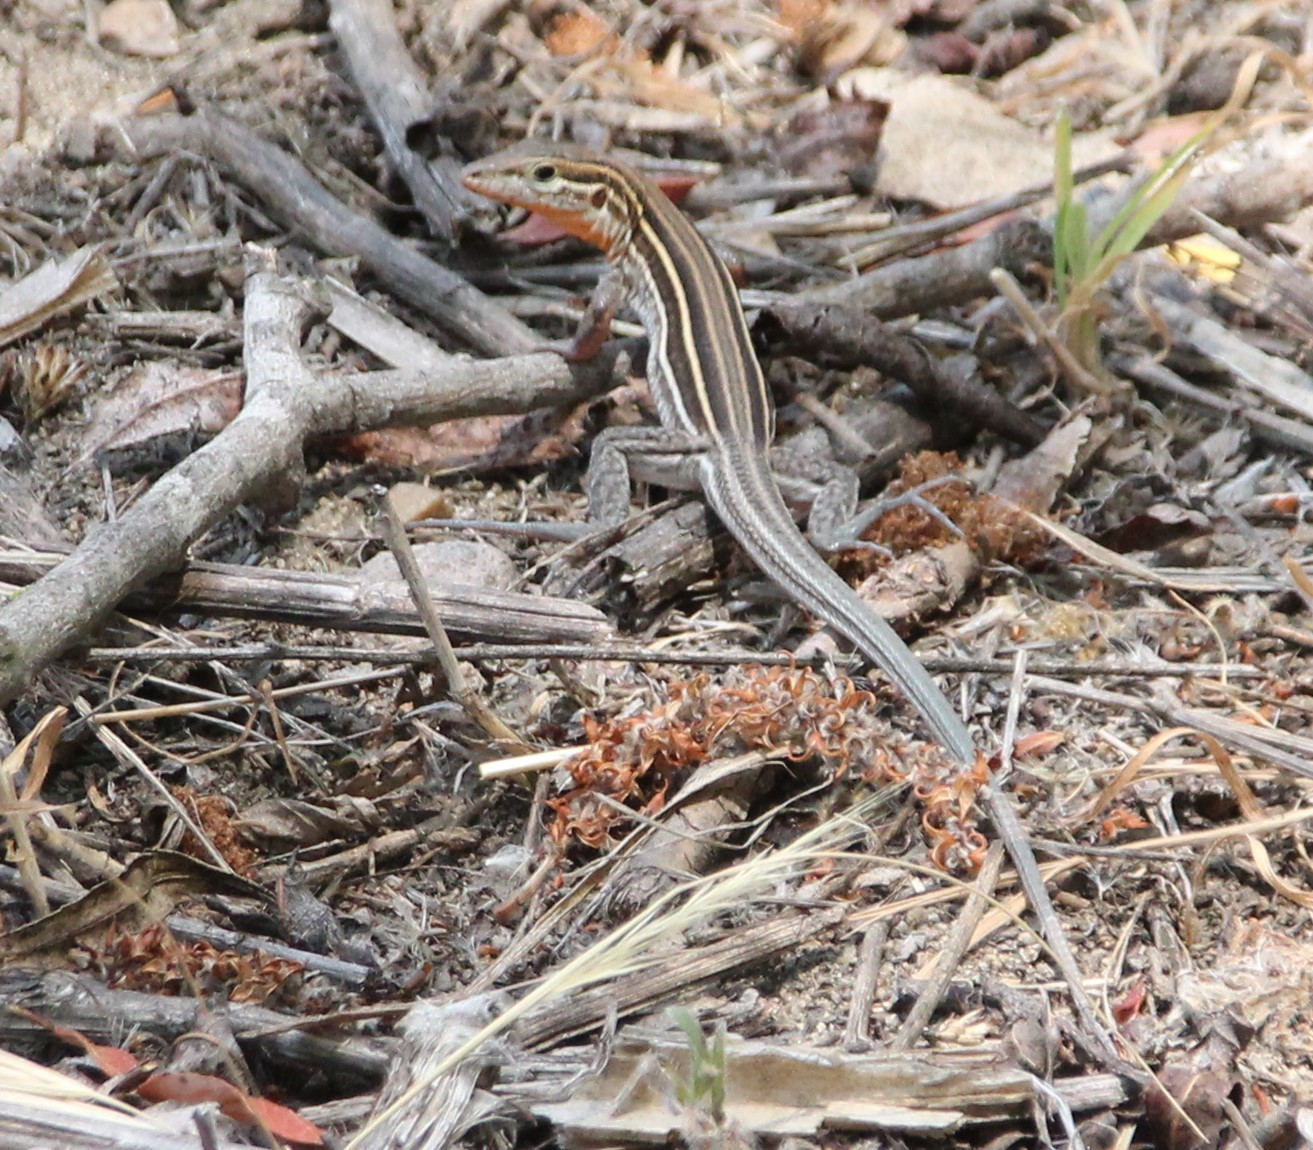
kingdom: Animalia
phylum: Chordata
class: Squamata
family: Teiidae
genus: Aspidoscelis
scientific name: Aspidoscelis hyperythrus
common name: Orange-throated race-runner
